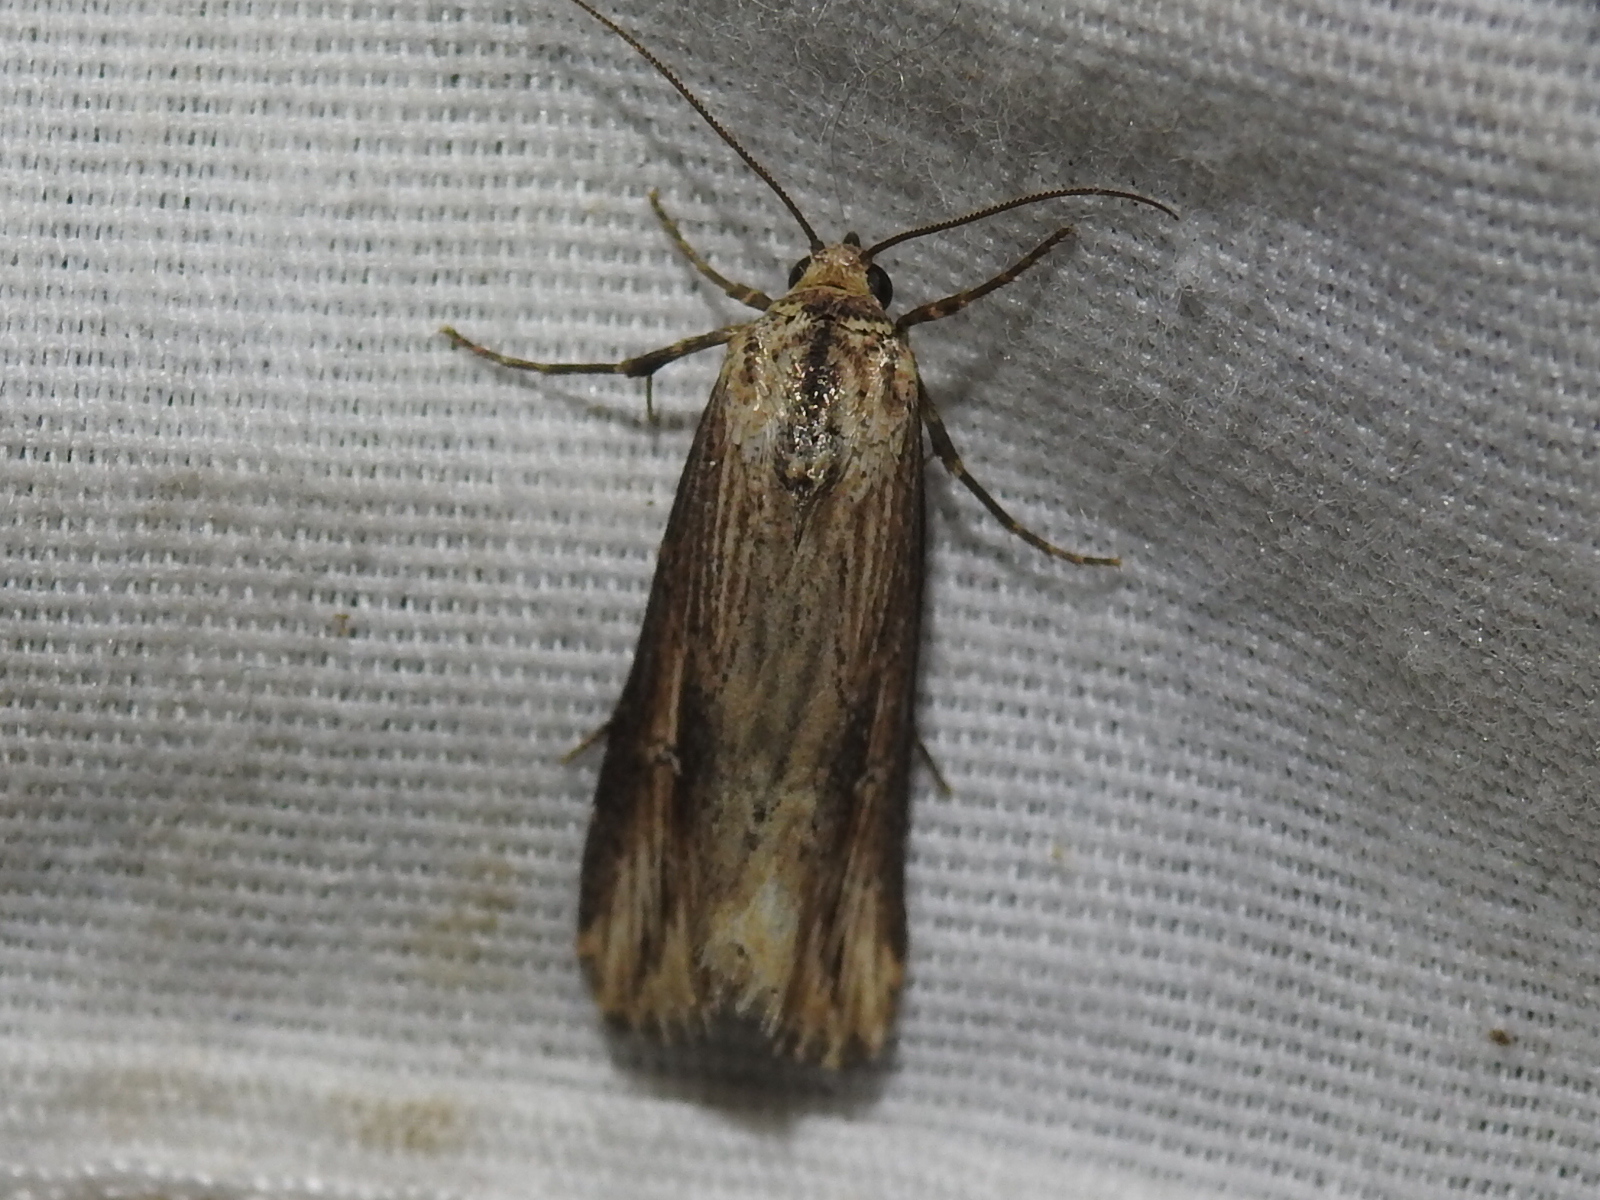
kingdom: Animalia
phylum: Arthropoda
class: Insecta
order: Lepidoptera
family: Noctuidae
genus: Crambodes
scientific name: Crambodes talidiformis
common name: Verbena moth
